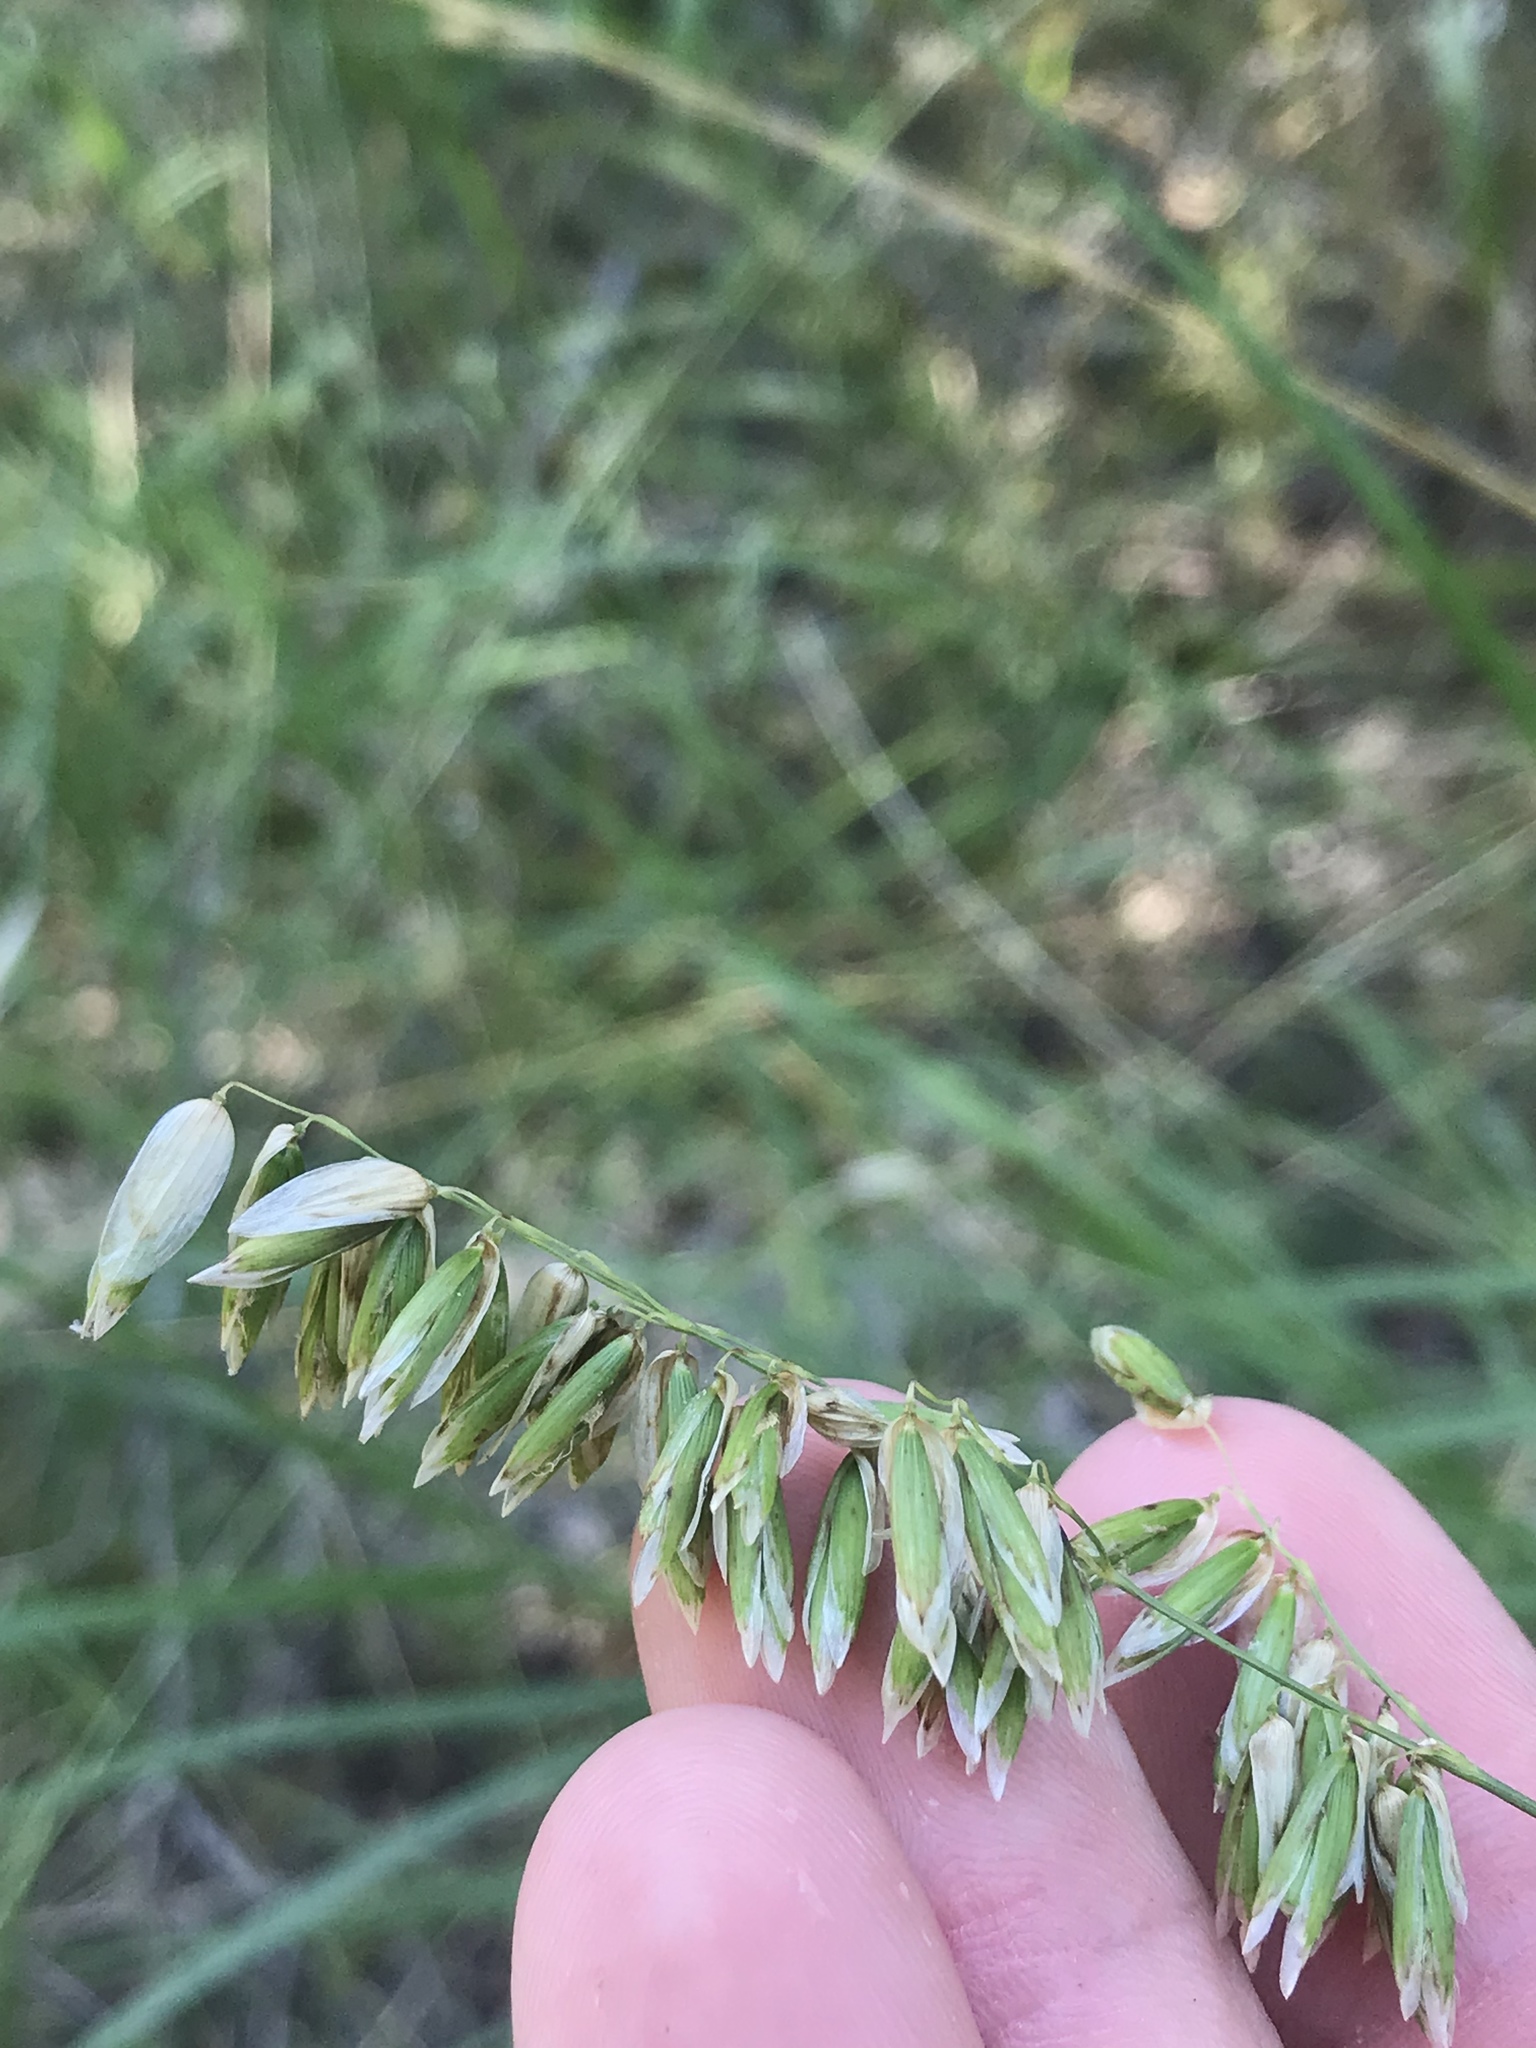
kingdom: Plantae
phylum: Tracheophyta
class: Liliopsida
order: Poales
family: Poaceae
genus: Melica
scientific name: Melica nitens
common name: Three-flower melic
